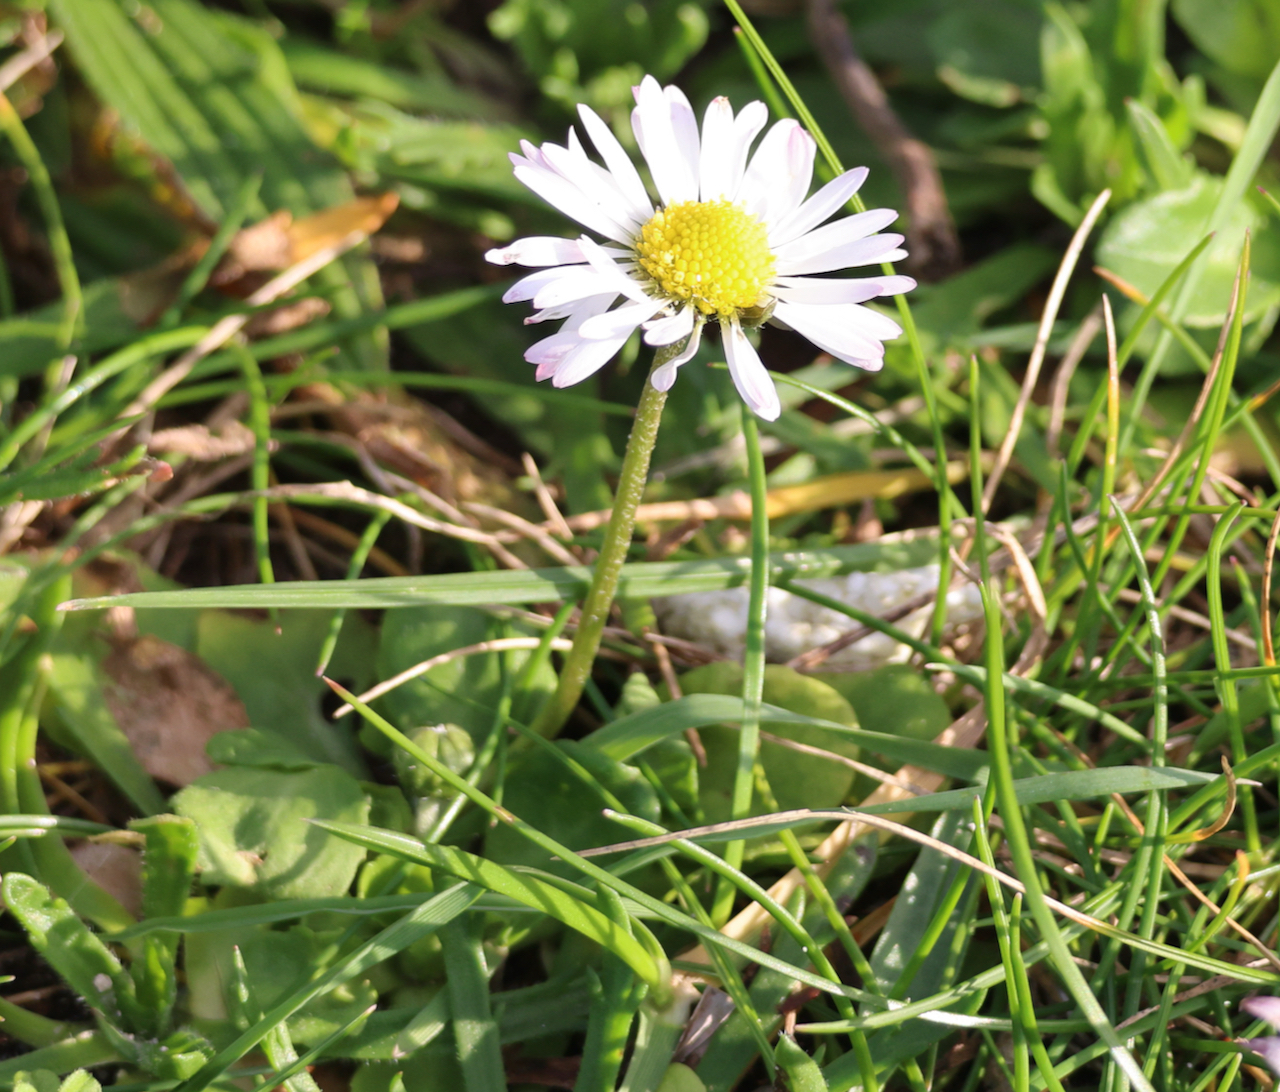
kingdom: Plantae
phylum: Tracheophyta
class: Magnoliopsida
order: Asterales
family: Asteraceae
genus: Bellis
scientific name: Bellis perennis
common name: Lawndaisy
